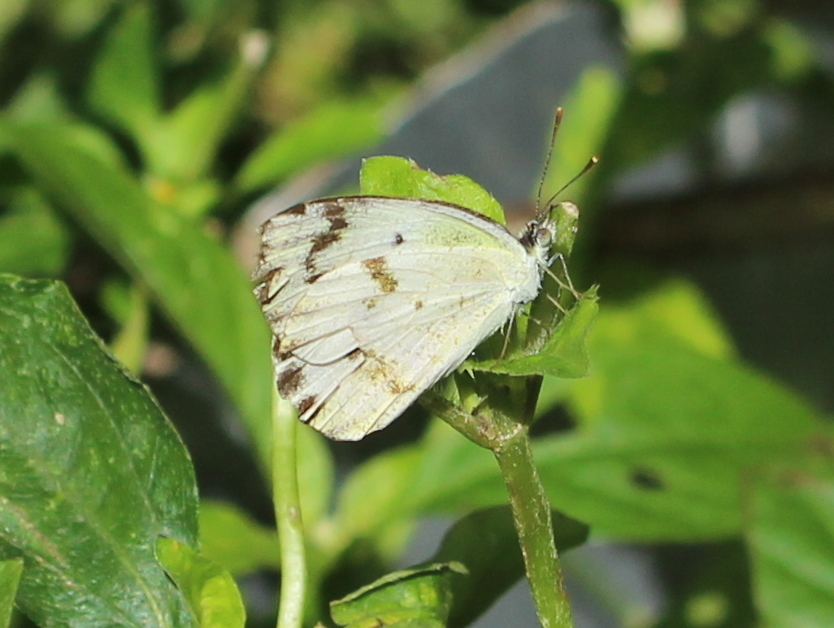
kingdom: Animalia
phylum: Arthropoda
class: Insecta
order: Lepidoptera
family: Pieridae
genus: Colotis
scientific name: Colotis aurora
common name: Plain orange-tip
